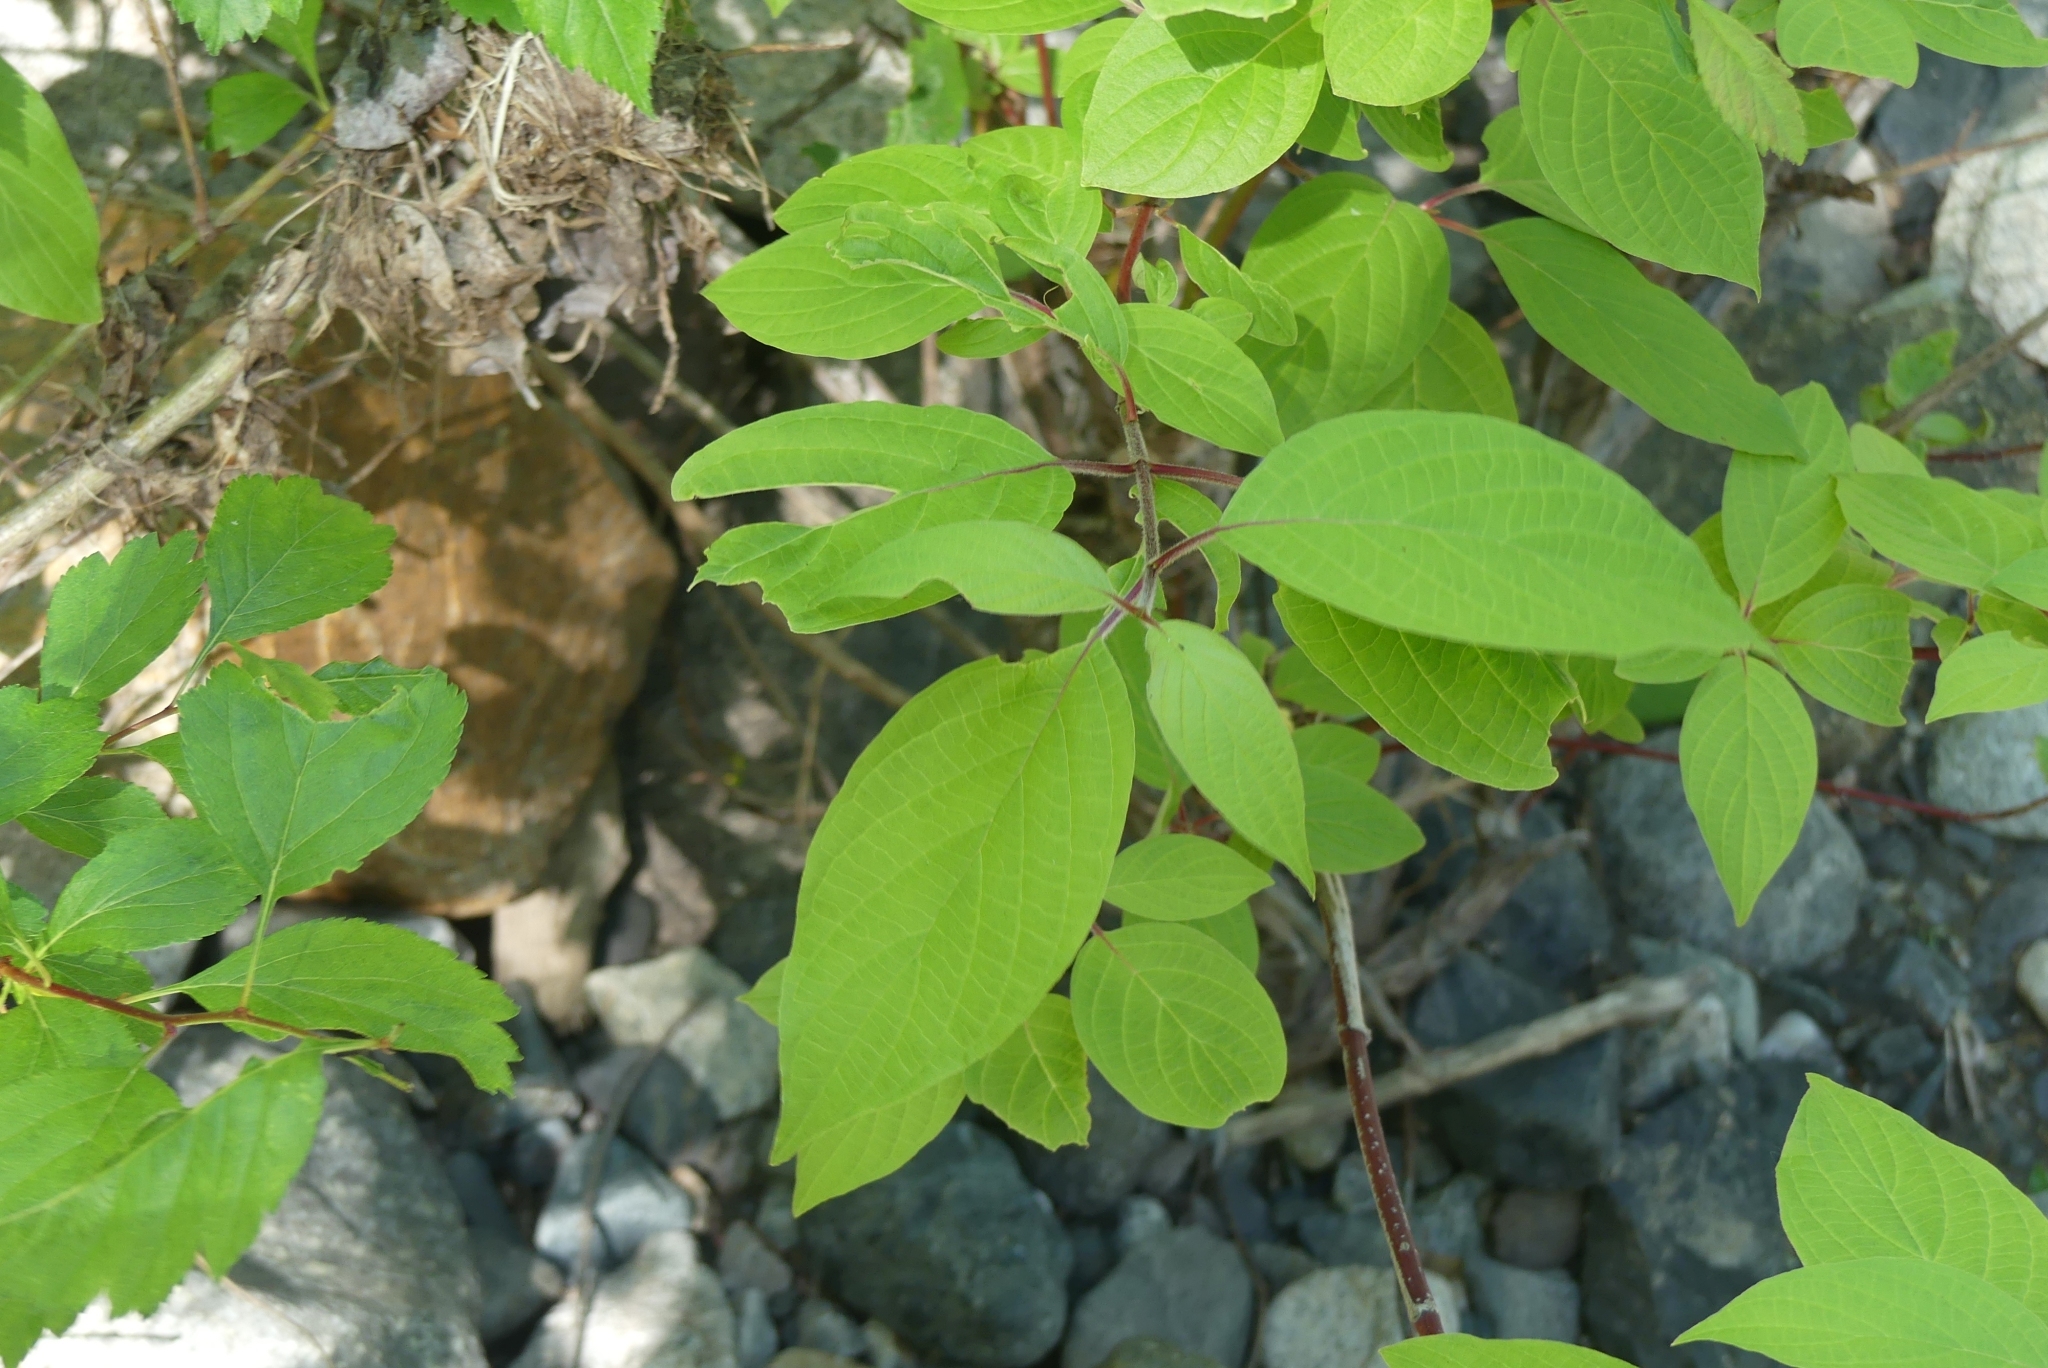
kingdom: Plantae
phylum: Tracheophyta
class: Magnoliopsida
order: Cornales
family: Cornaceae
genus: Cornus
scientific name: Cornus sericea
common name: Red-osier dogwood
